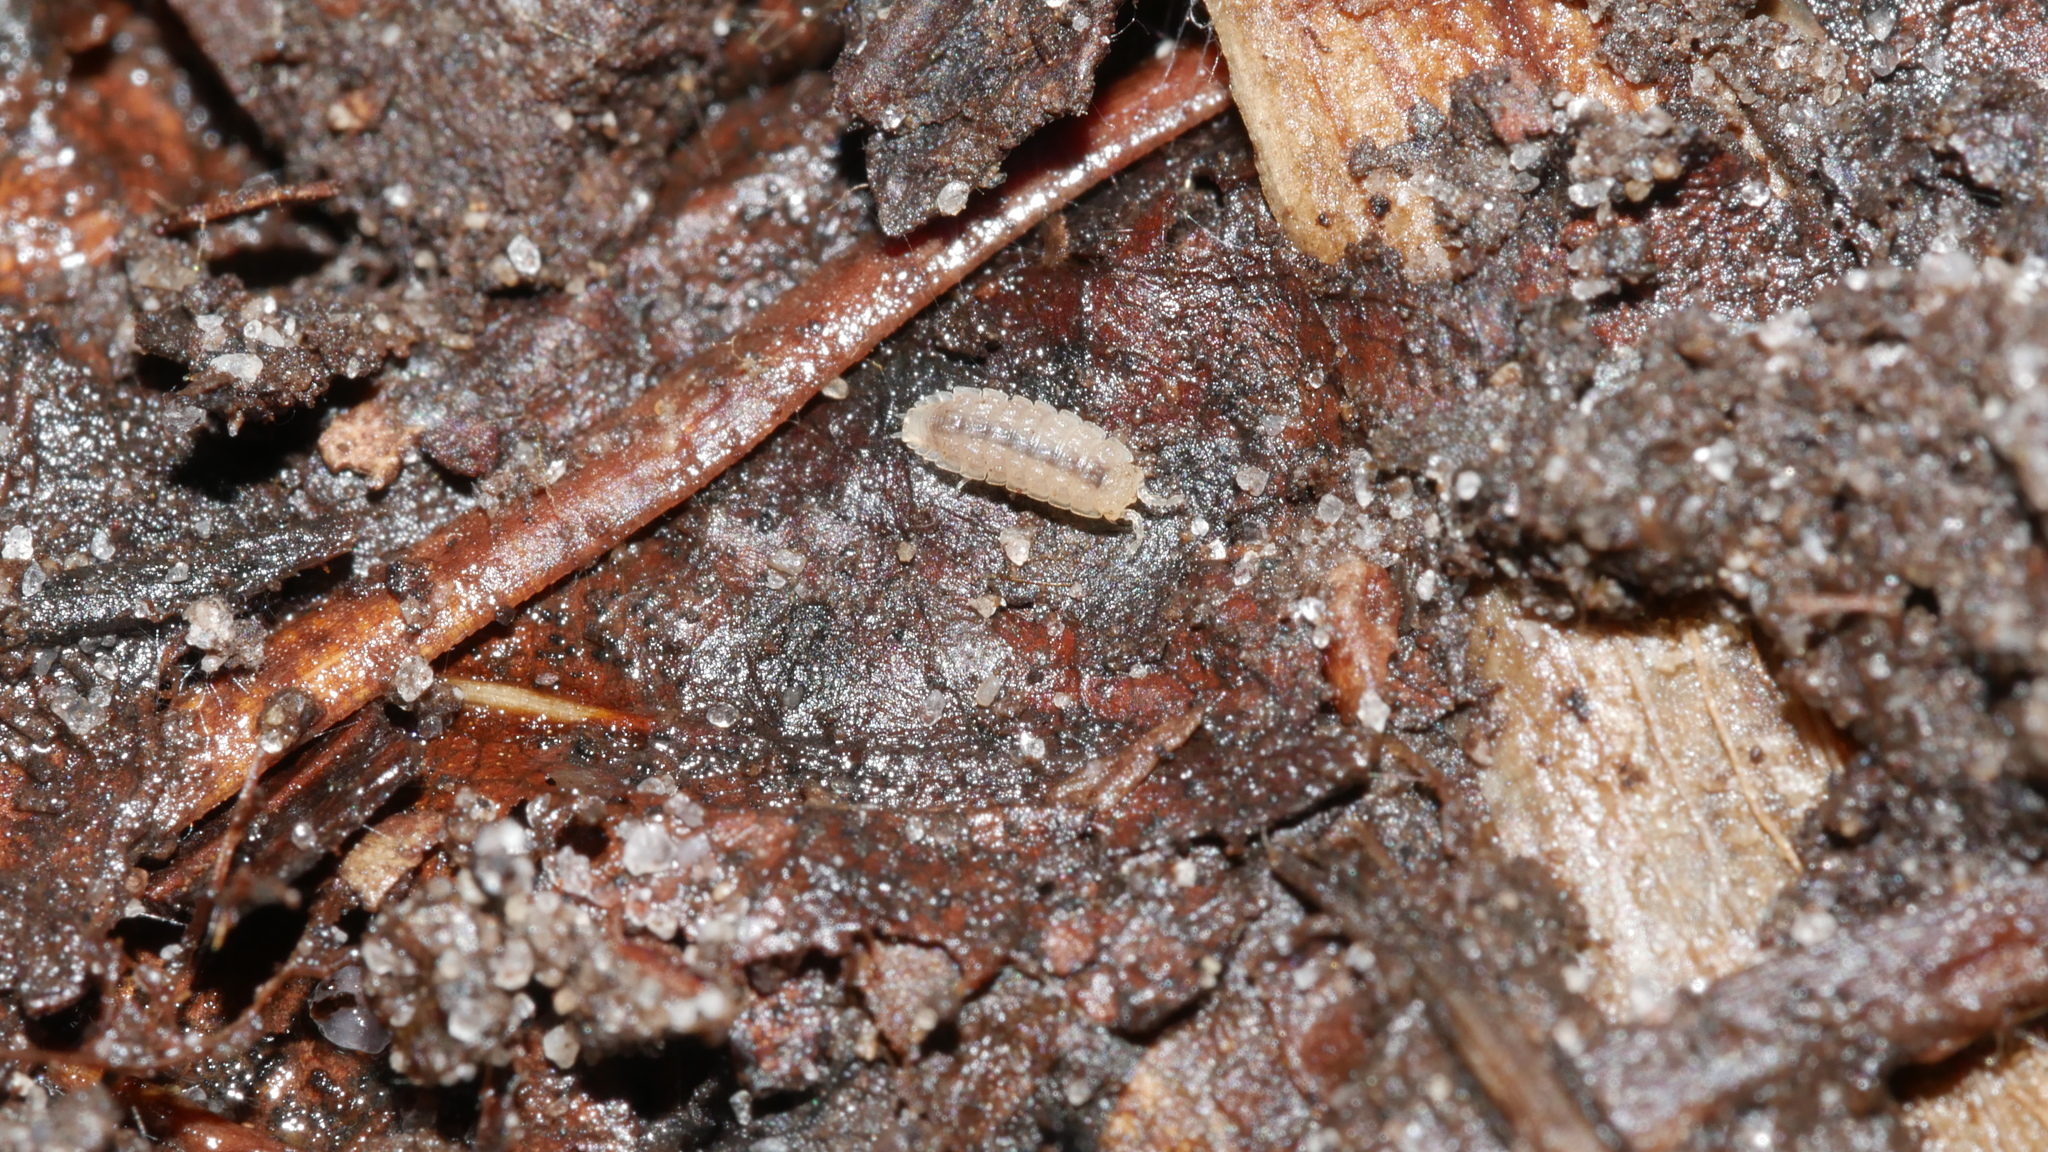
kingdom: Animalia
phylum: Arthropoda
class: Malacostraca
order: Isopoda
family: Trichoniscidae
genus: Haplophthalmus
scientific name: Haplophthalmus danicus
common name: Pillbug
